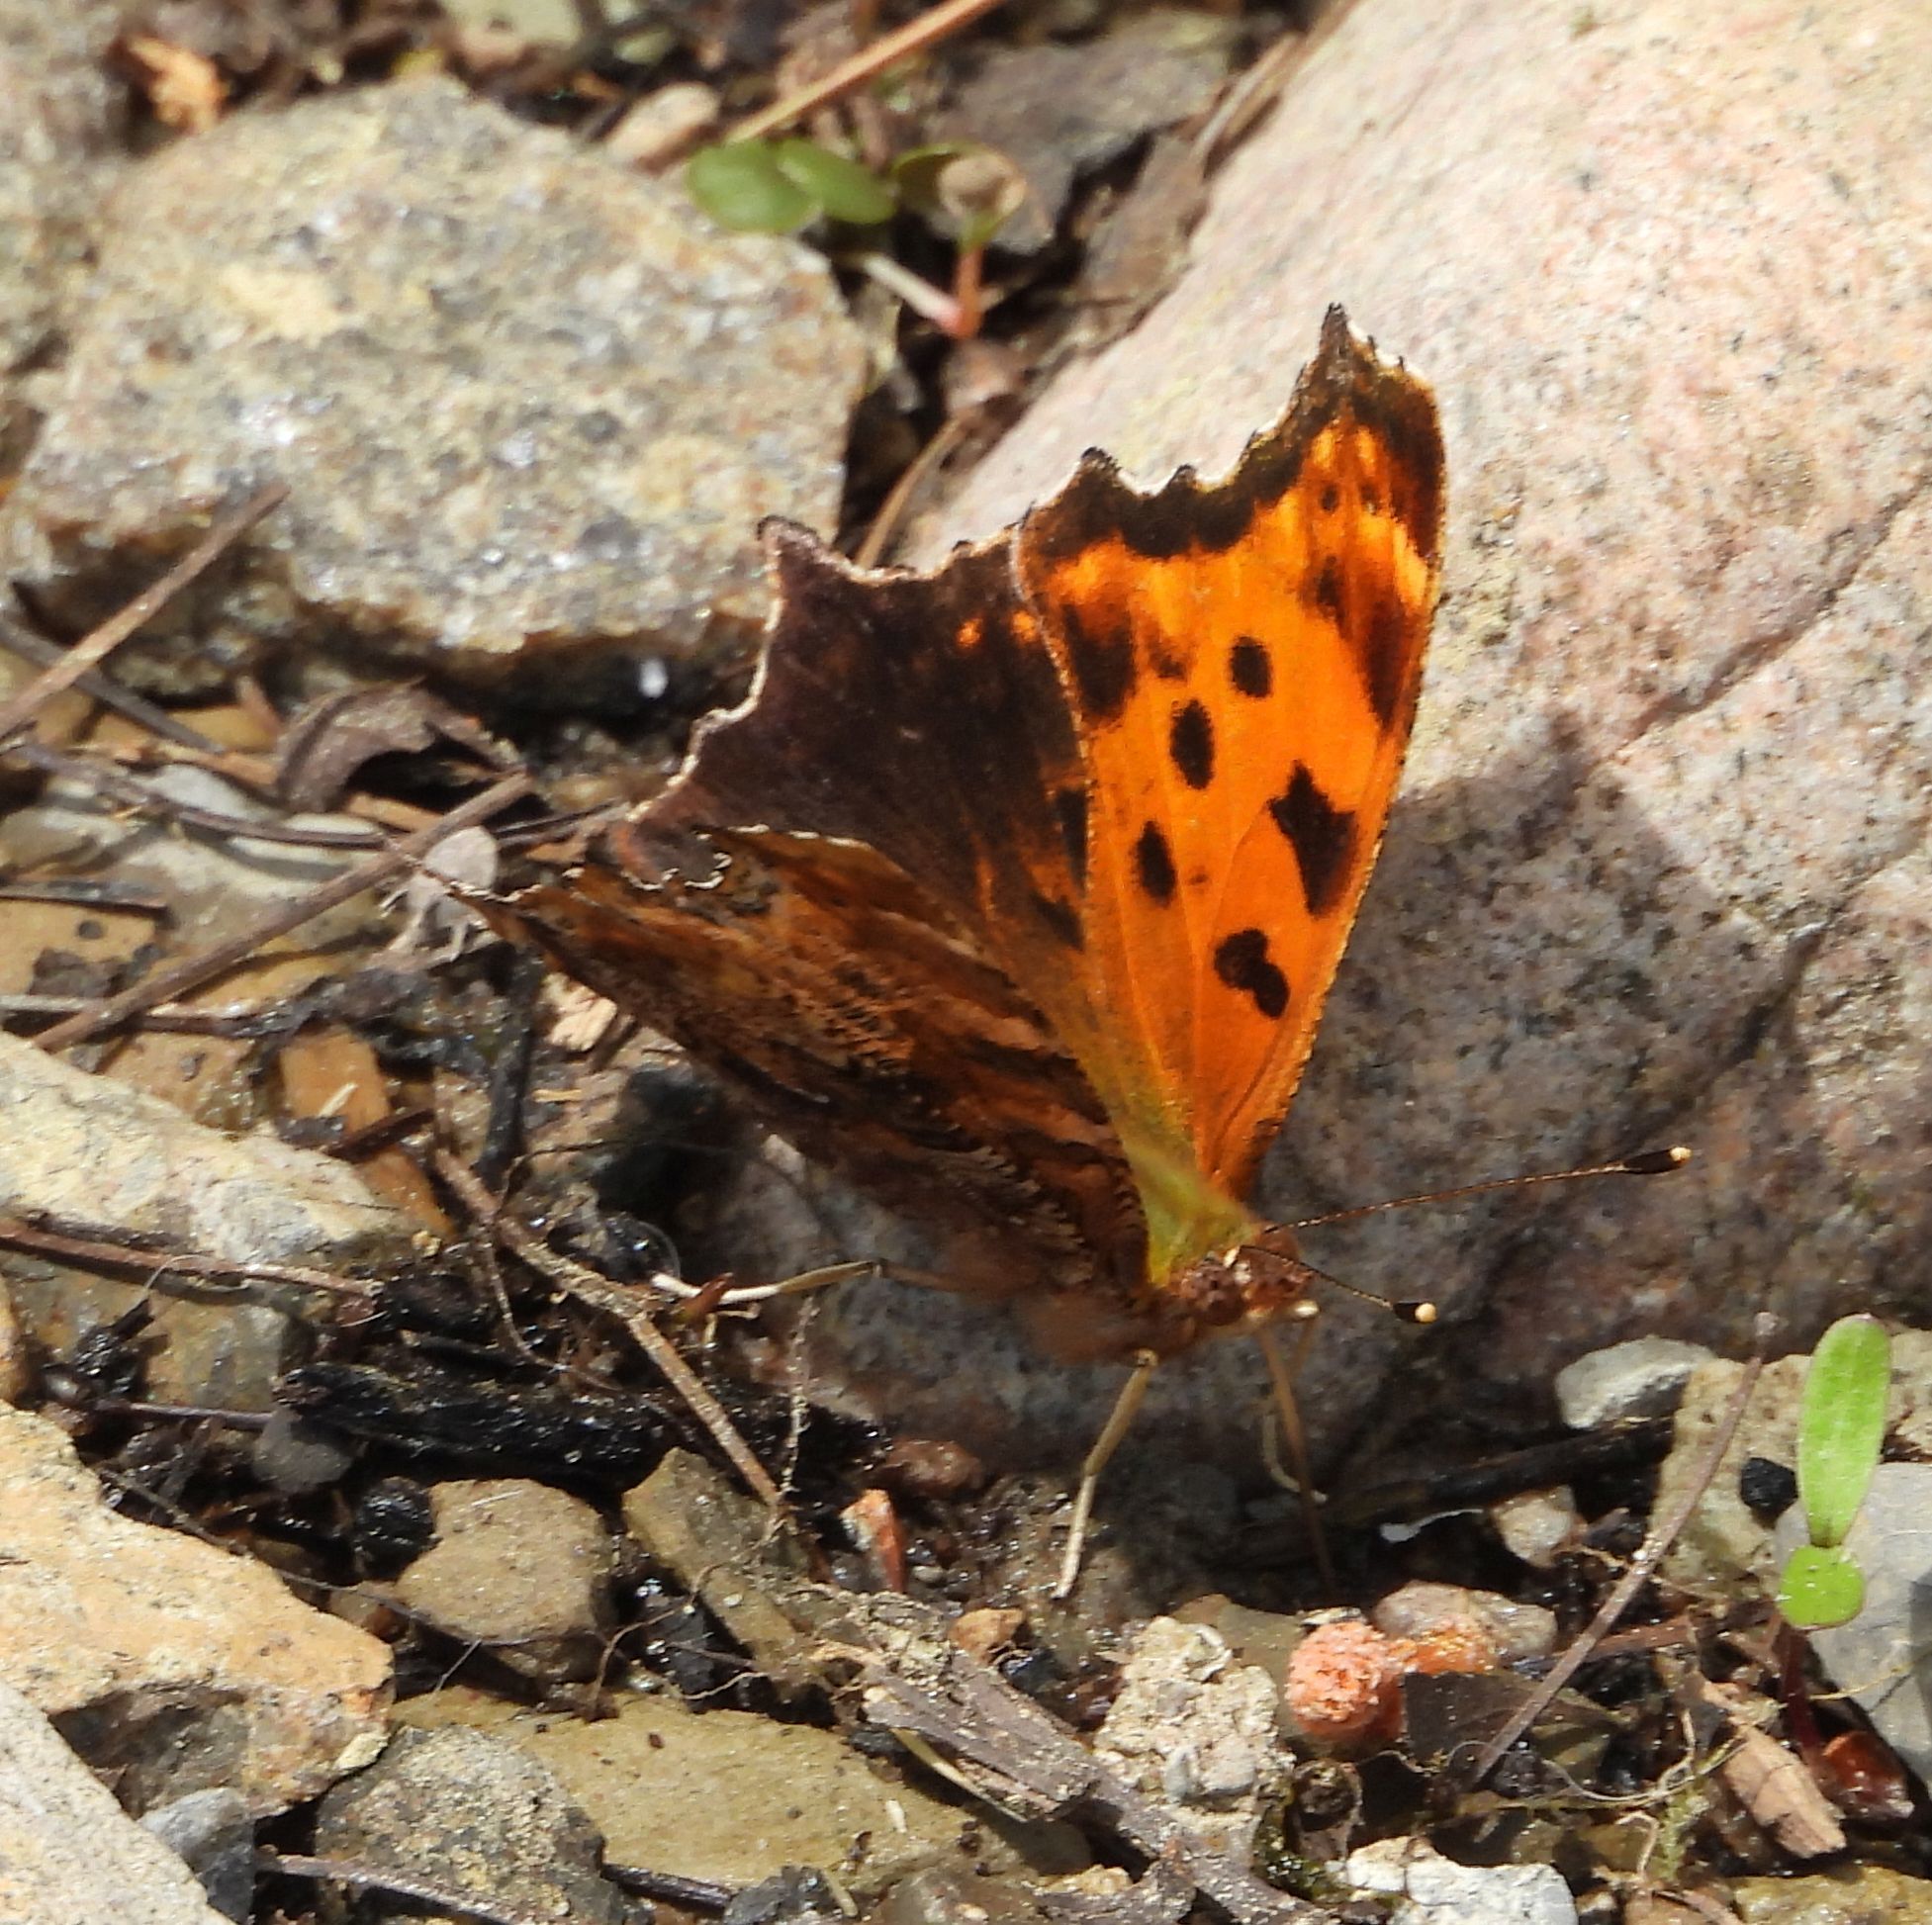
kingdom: Animalia
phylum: Arthropoda
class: Insecta
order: Lepidoptera
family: Nymphalidae
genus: Polygonia
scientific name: Polygonia comma
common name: Eastern comma
